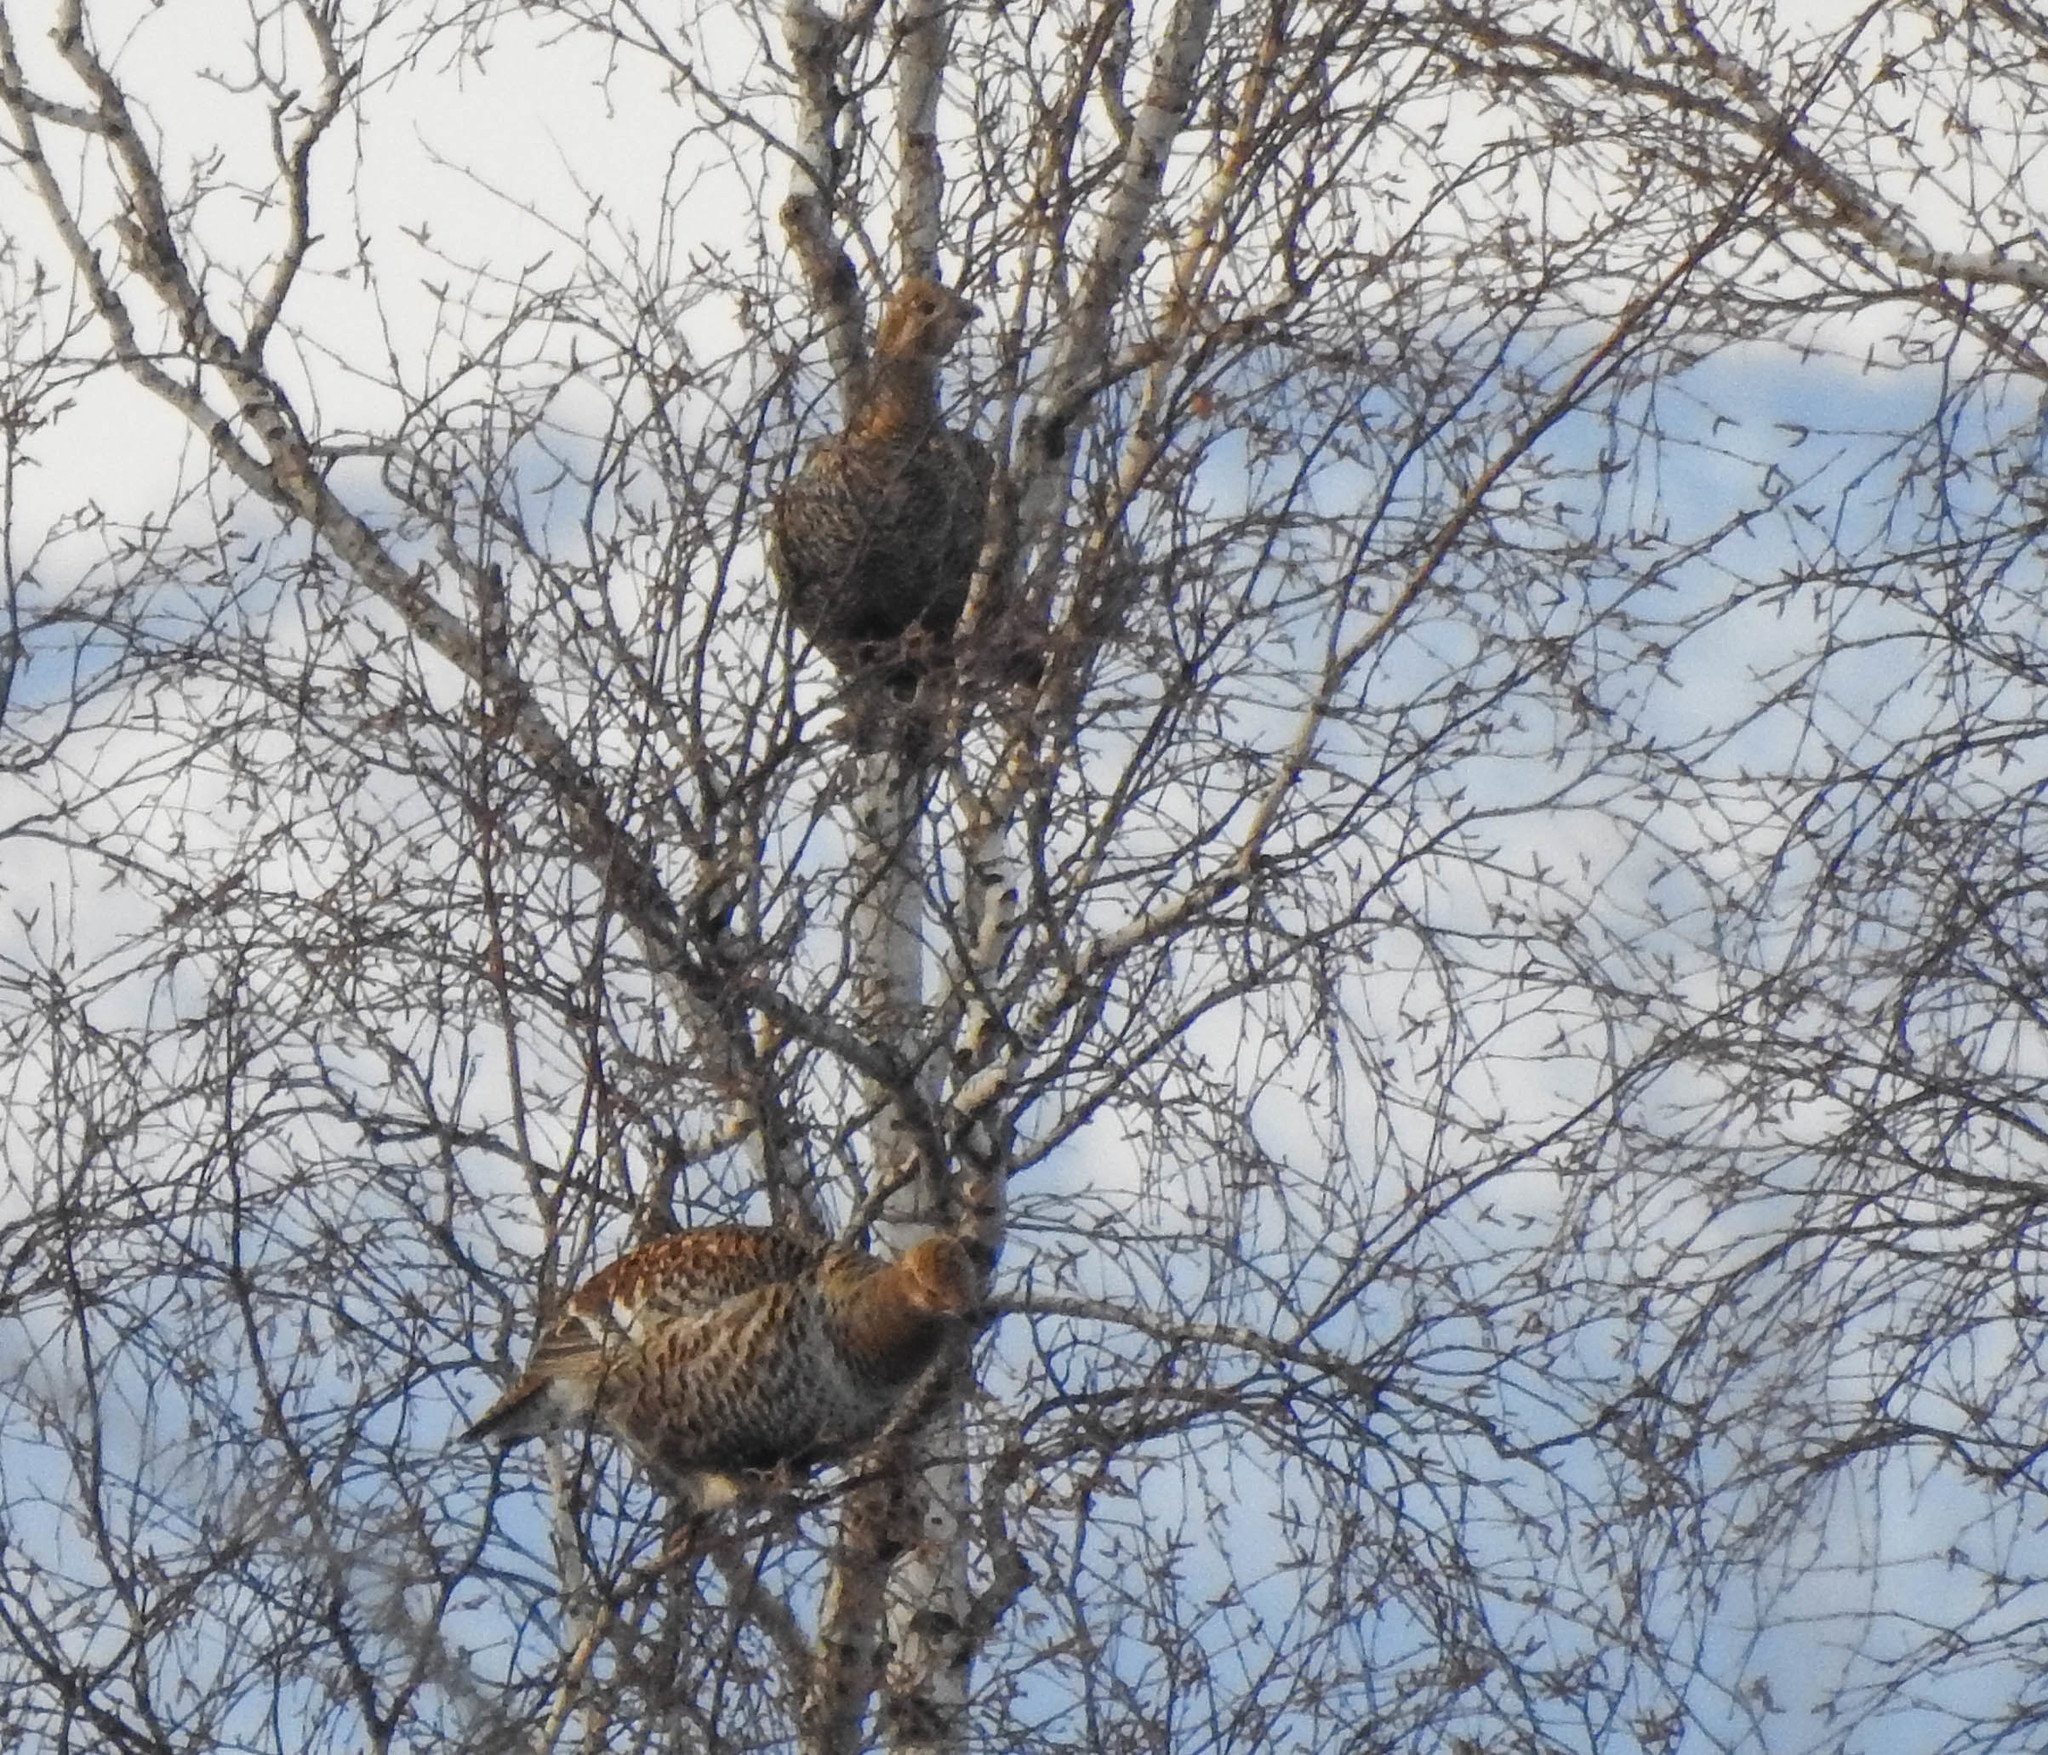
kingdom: Animalia
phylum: Chordata
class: Aves
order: Galliformes
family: Phasianidae
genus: Lyrurus
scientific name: Lyrurus tetrix
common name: Black grouse
